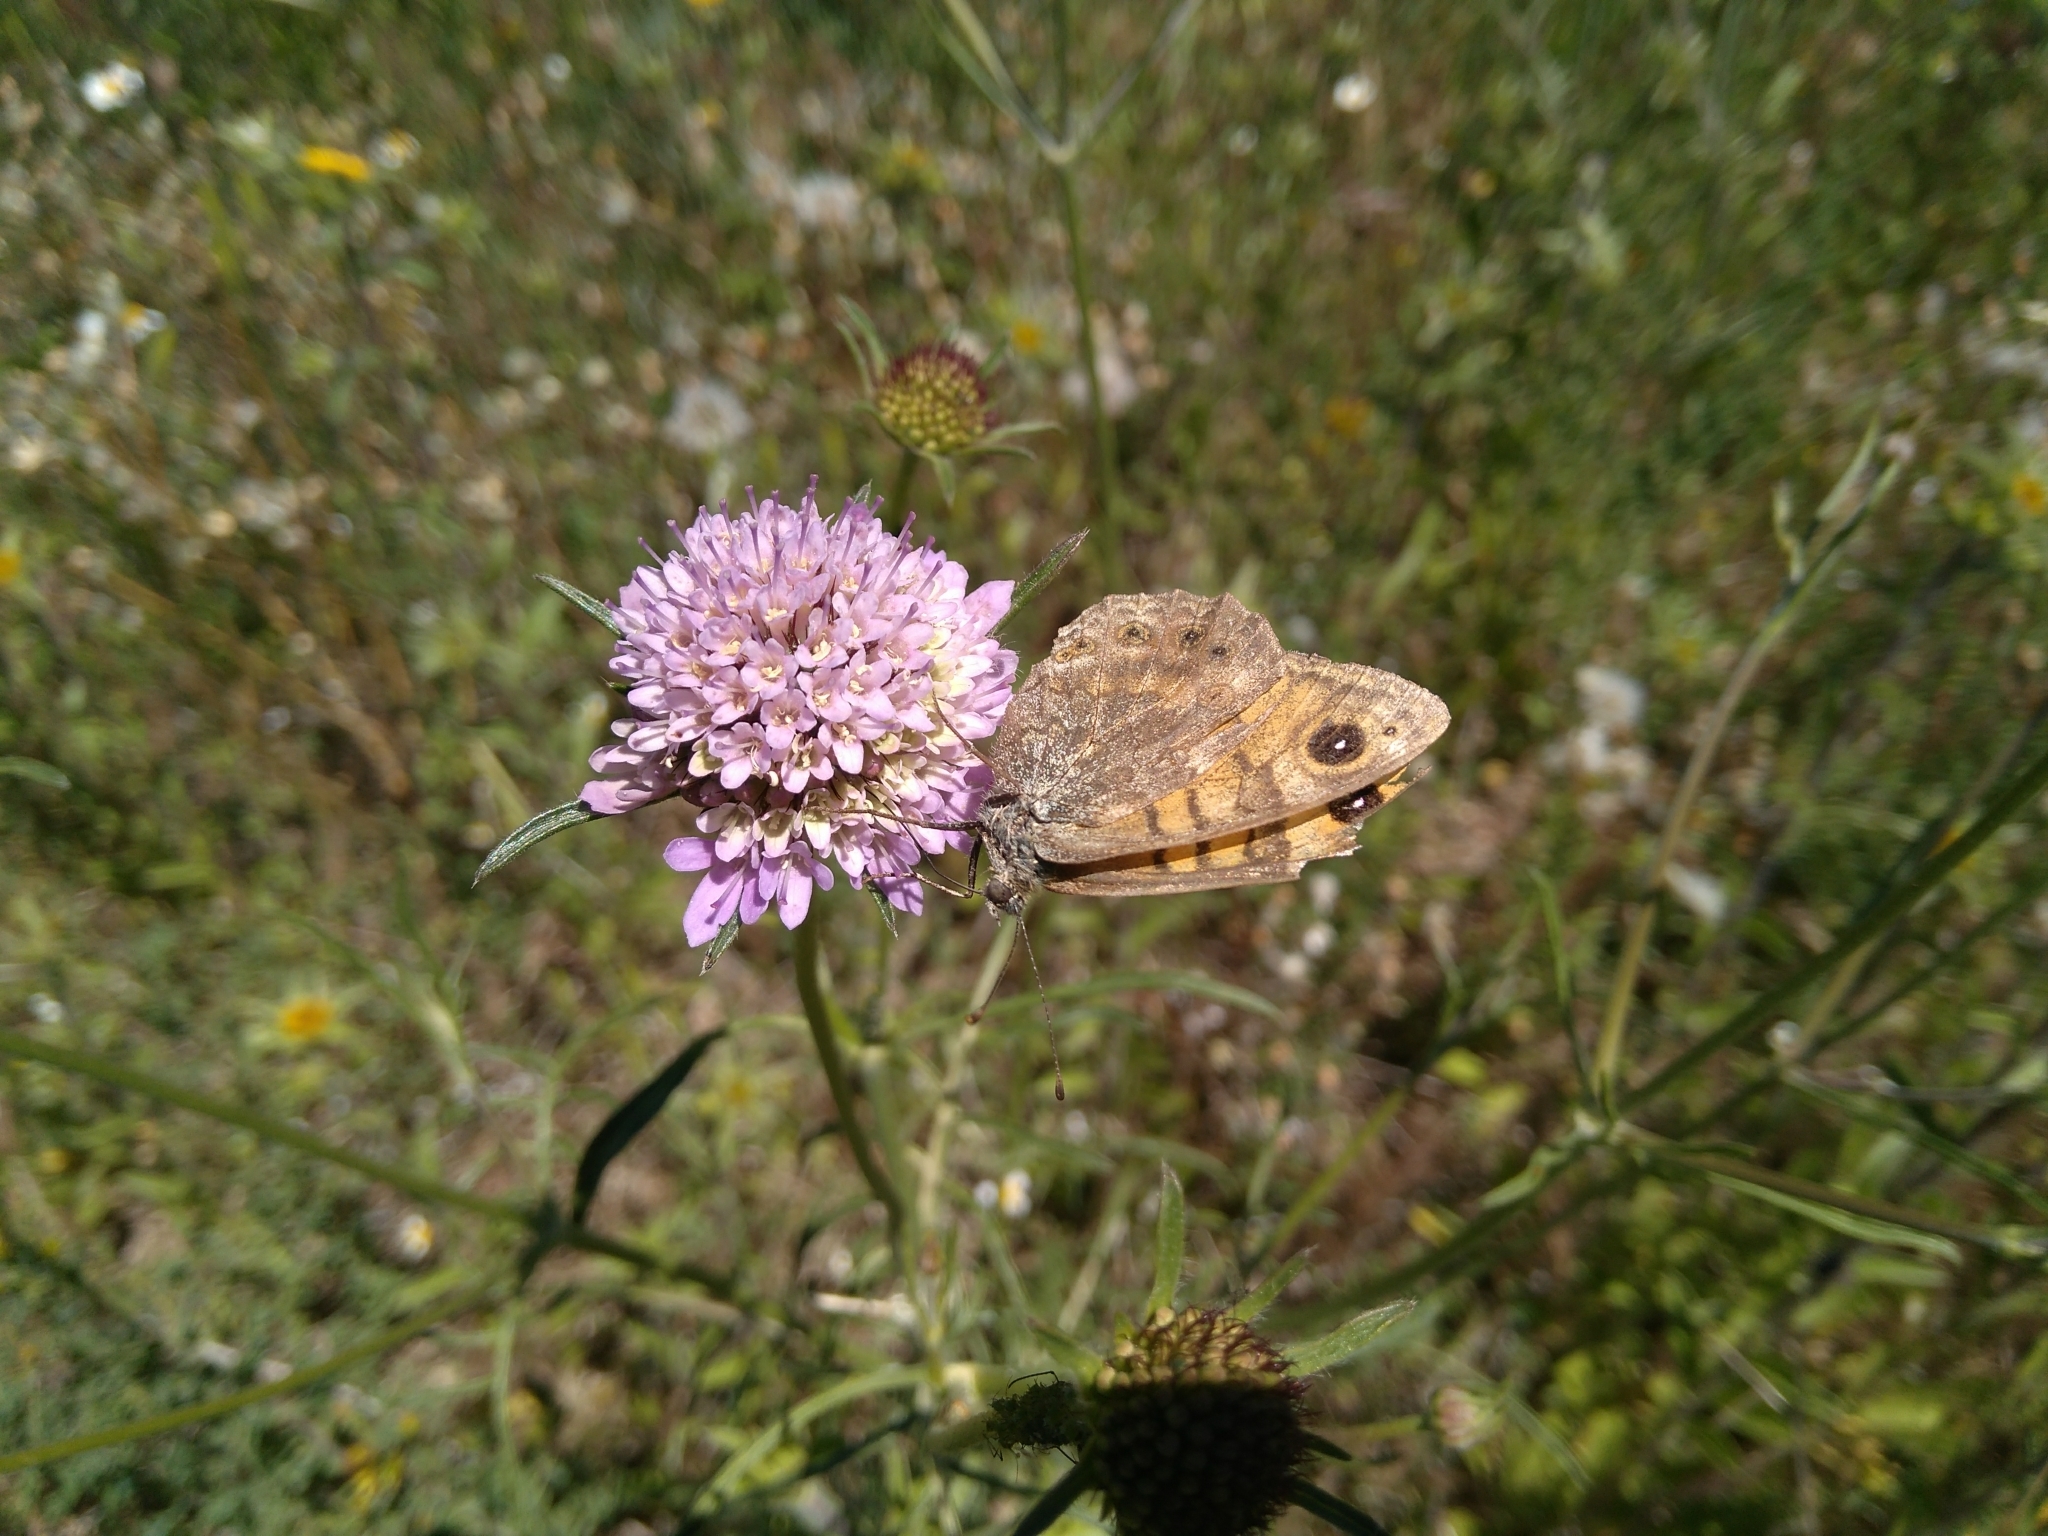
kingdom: Animalia
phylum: Arthropoda
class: Insecta
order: Lepidoptera
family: Nymphalidae
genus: Pararge
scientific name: Pararge Lasiommata megera
